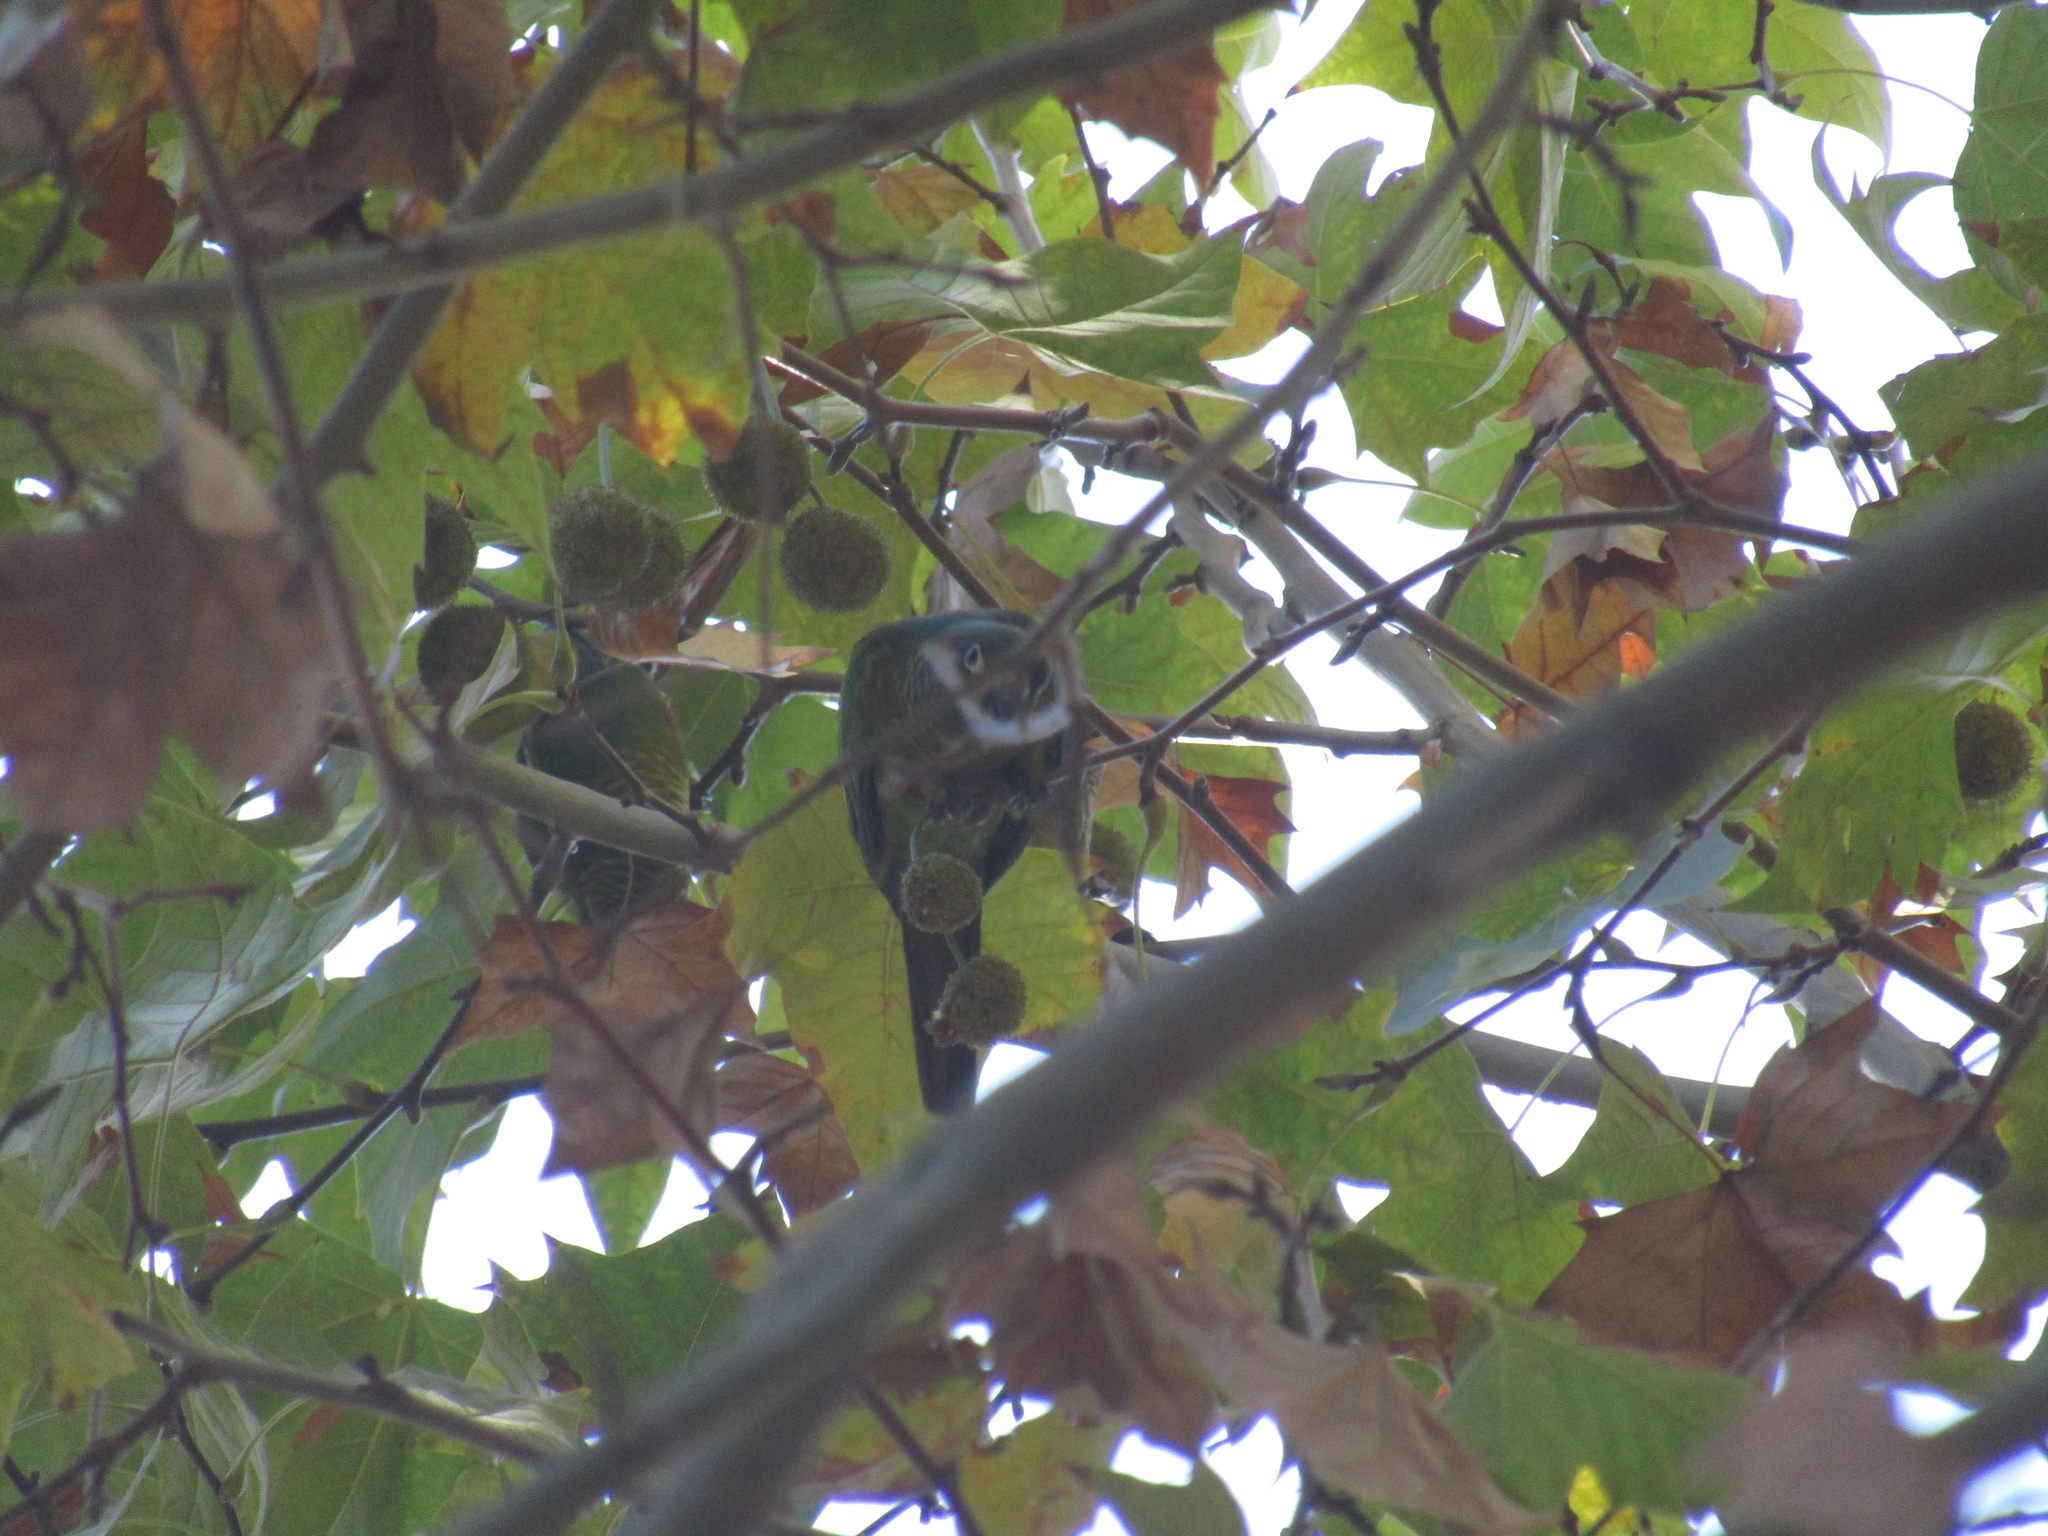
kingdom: Animalia
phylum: Chordata
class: Aves
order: Psittaciformes
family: Psittacidae
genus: Pyrrhura
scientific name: Pyrrhura frontalis
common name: Maroon-bellied parakeet
